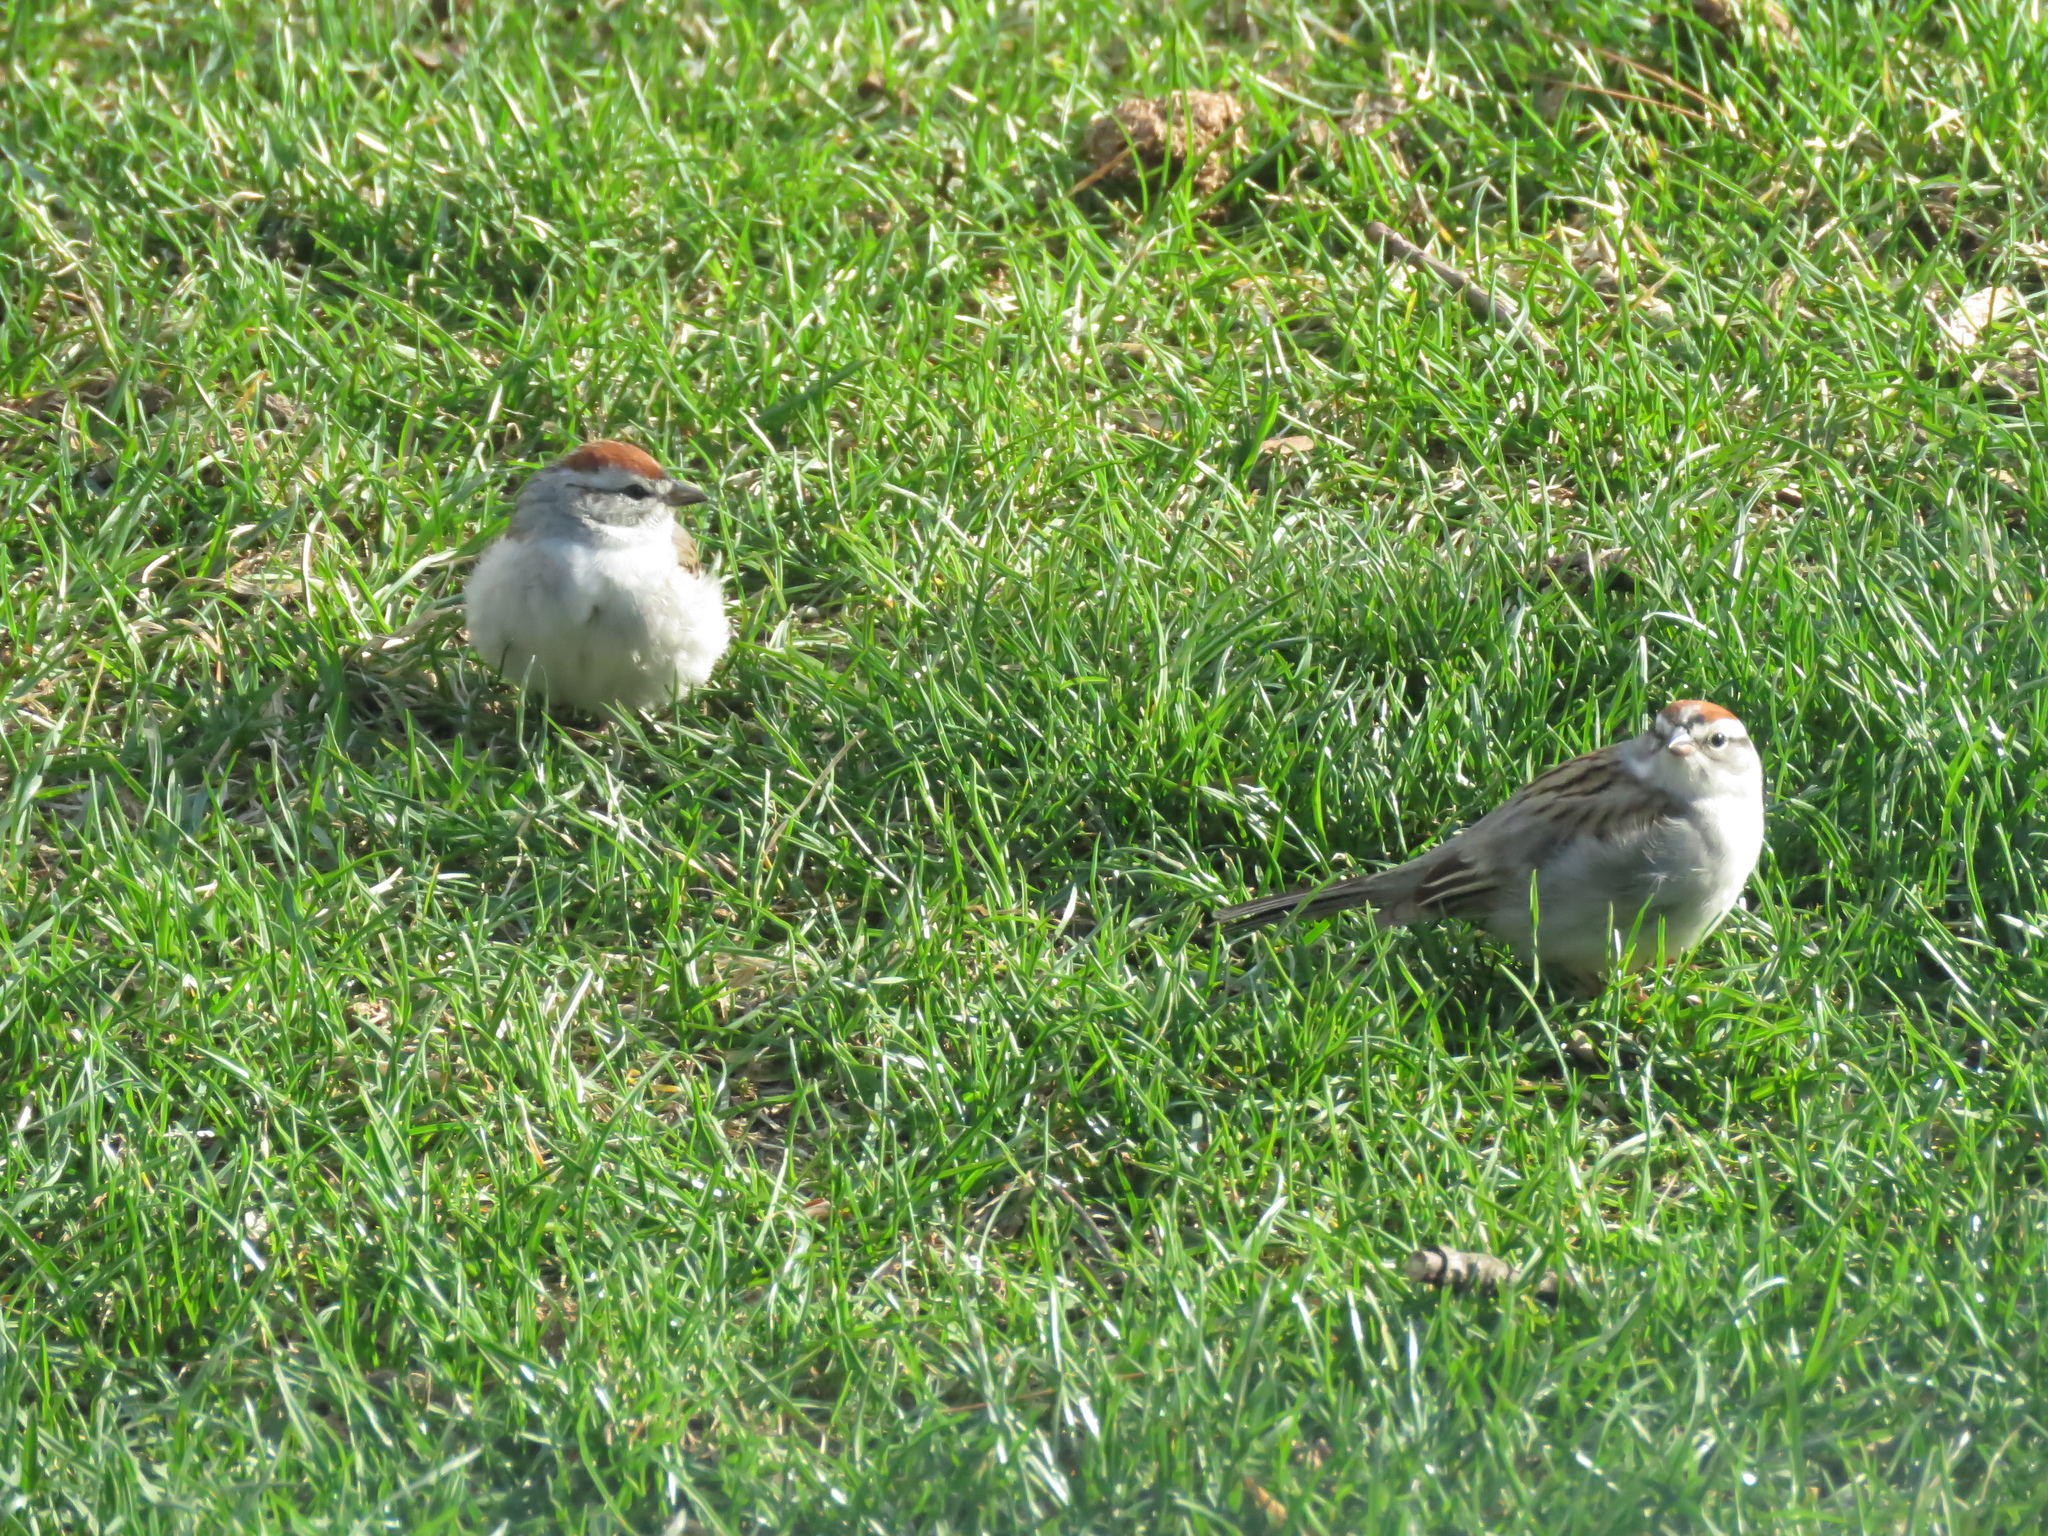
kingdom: Animalia
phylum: Chordata
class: Aves
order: Passeriformes
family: Passerellidae
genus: Spizella
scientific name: Spizella passerina
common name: Chipping sparrow
